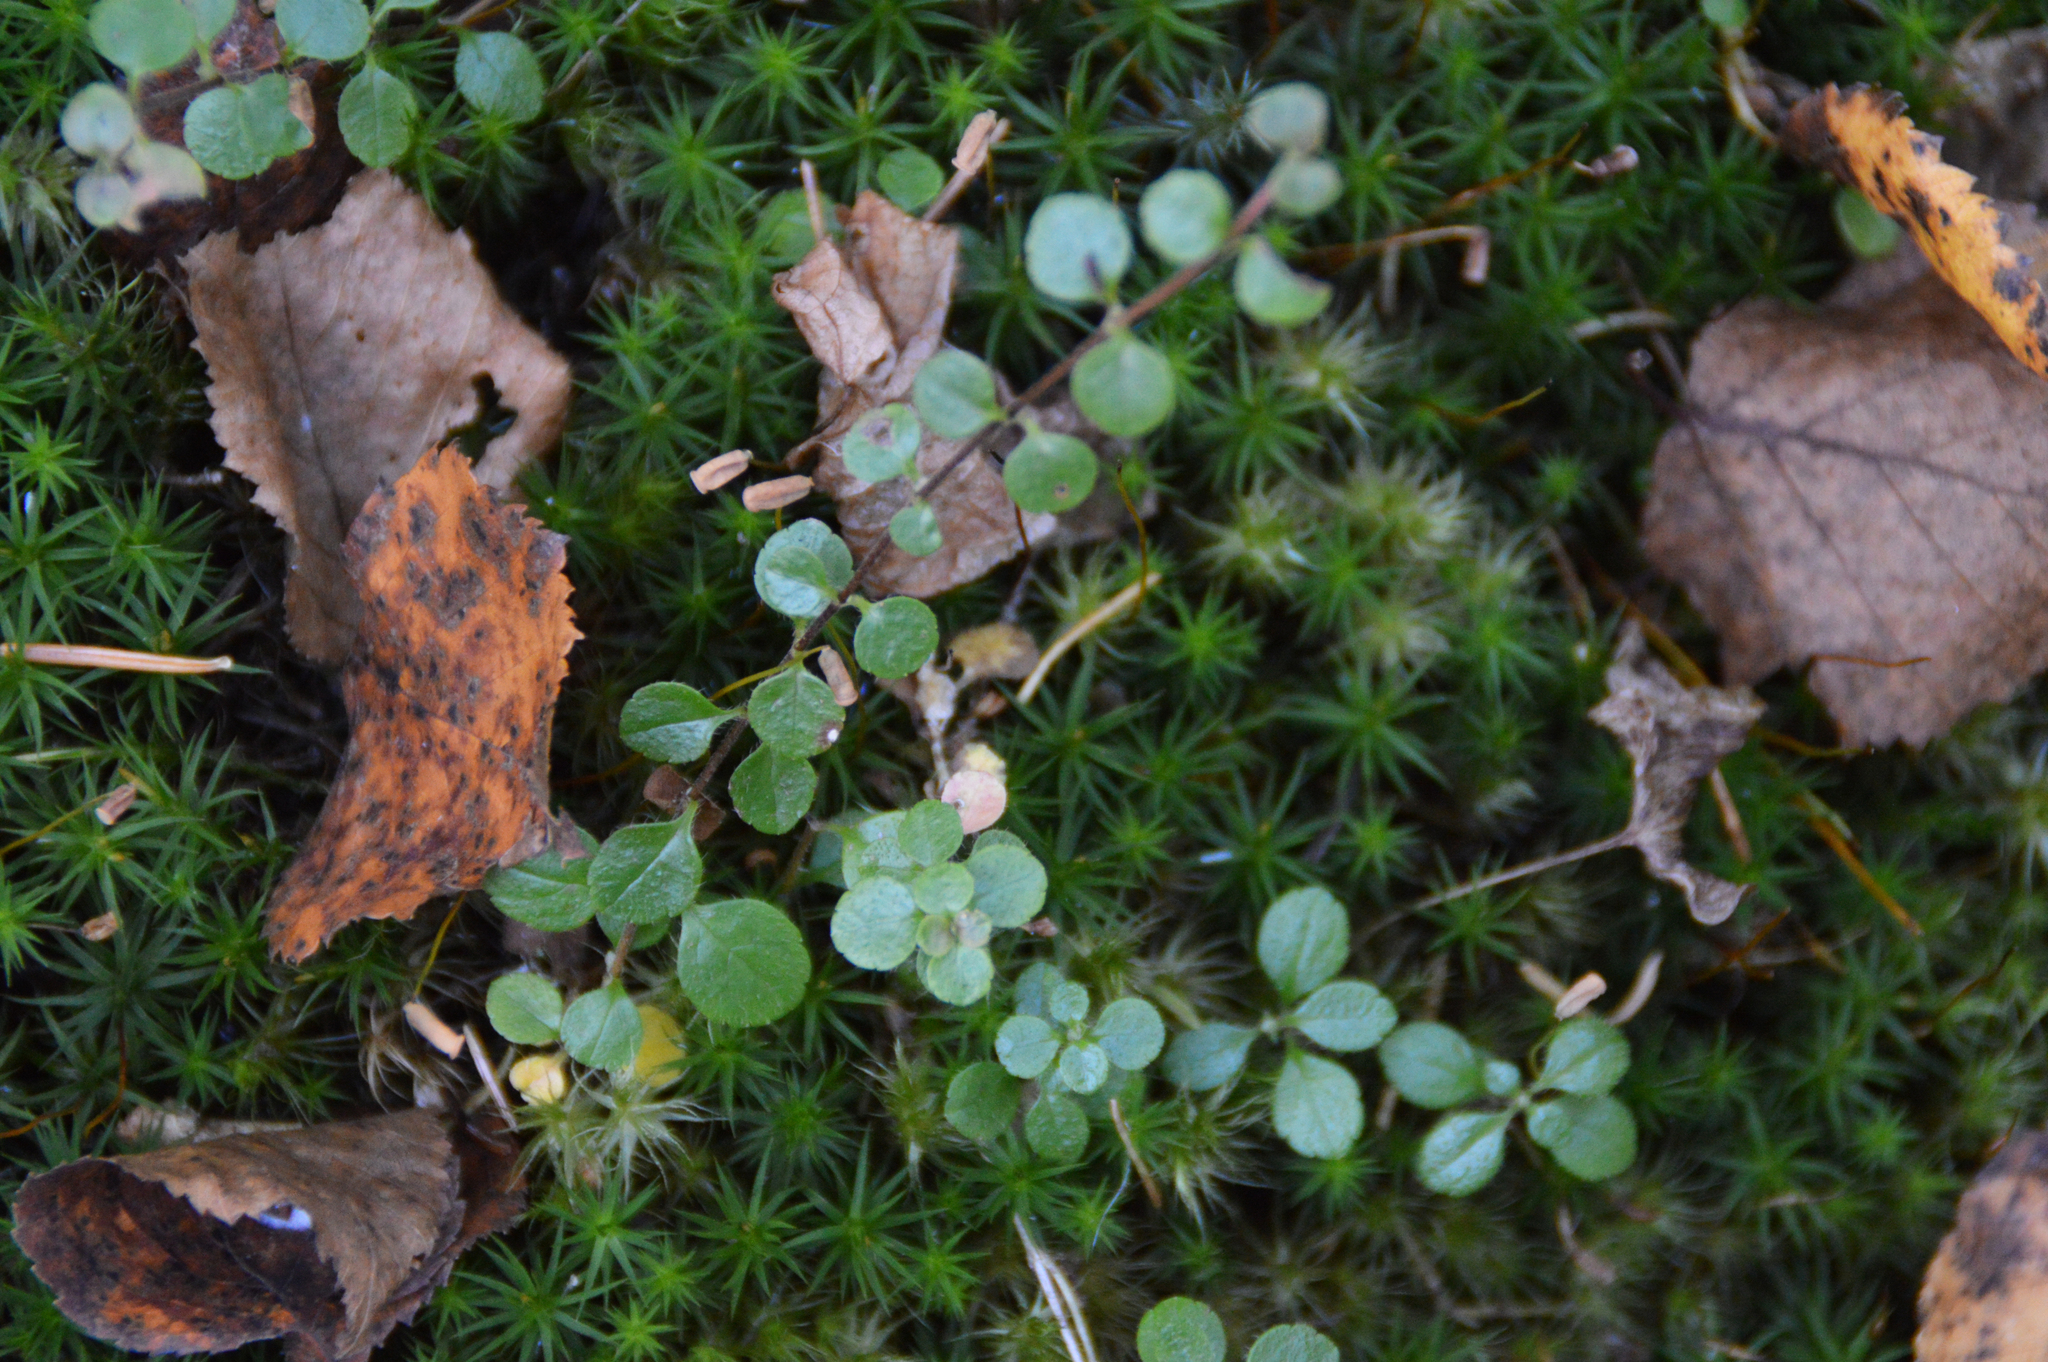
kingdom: Plantae
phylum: Tracheophyta
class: Magnoliopsida
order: Dipsacales
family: Caprifoliaceae
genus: Linnaea
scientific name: Linnaea borealis
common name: Twinflower
